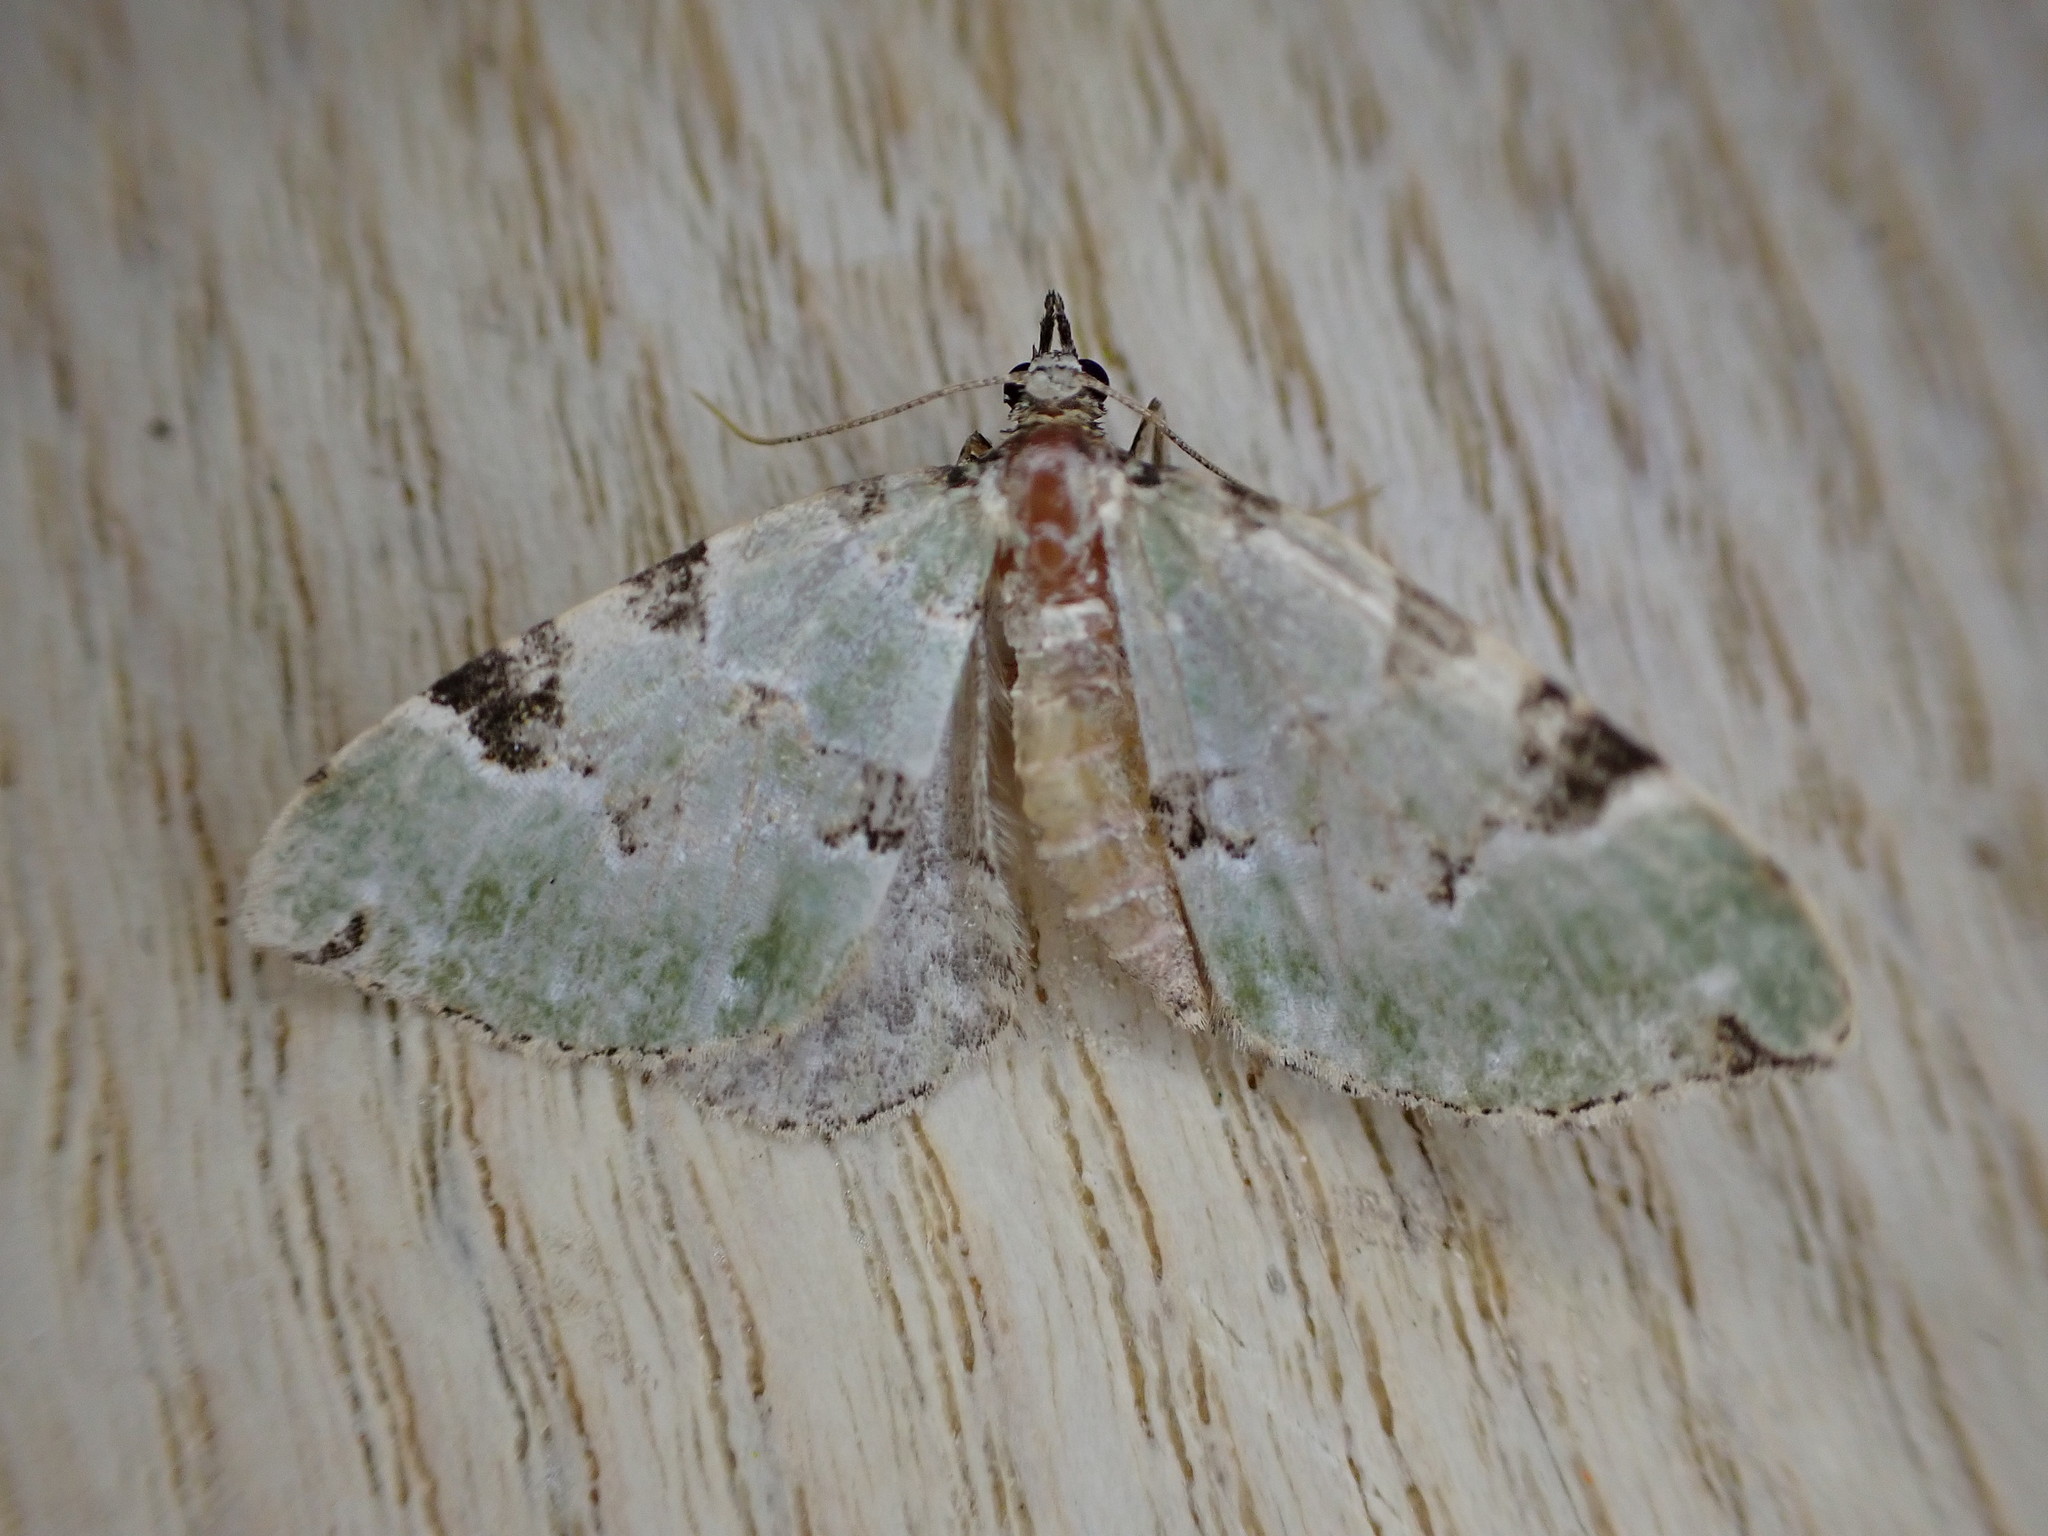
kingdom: Animalia
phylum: Arthropoda
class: Insecta
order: Lepidoptera
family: Geometridae
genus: Colostygia
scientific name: Colostygia pectinataria
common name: Green carpet
